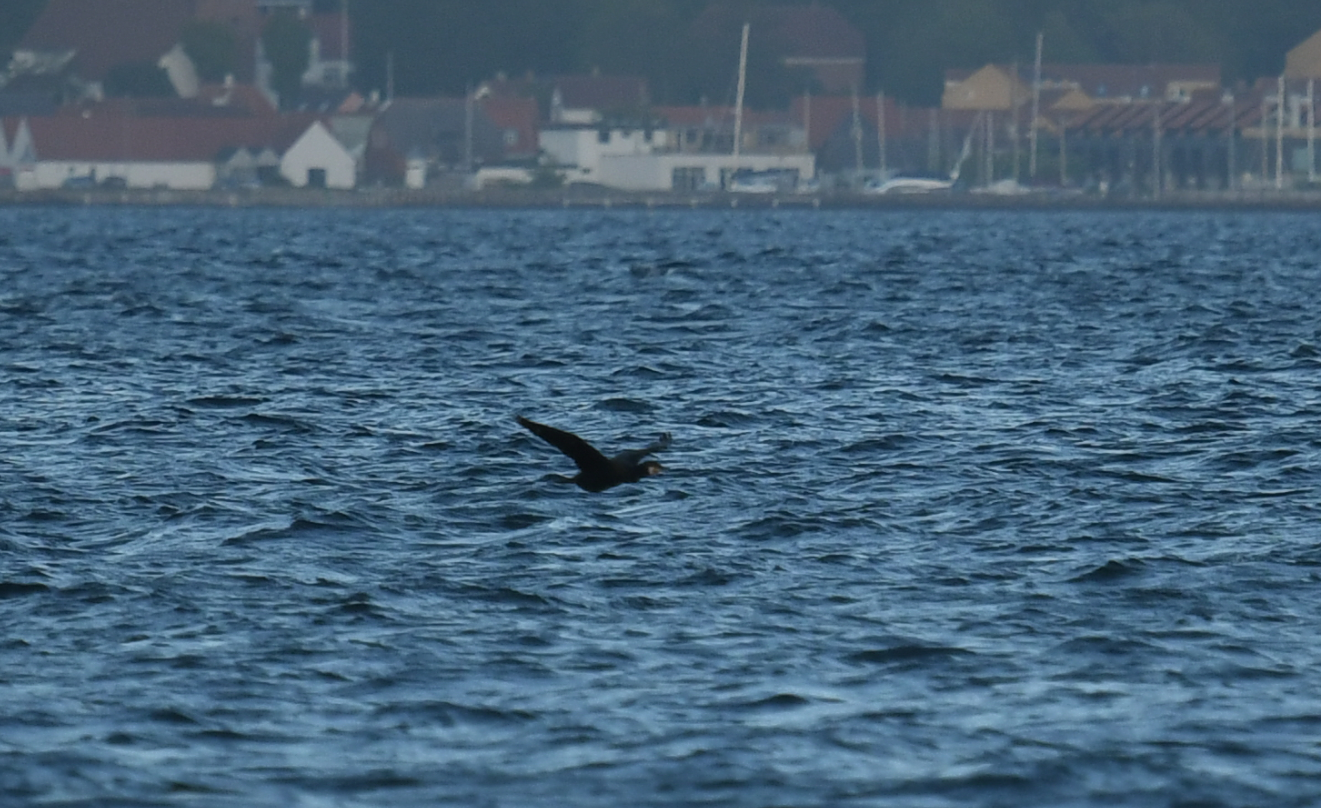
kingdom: Animalia
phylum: Chordata
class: Aves
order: Suliformes
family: Phalacrocoracidae
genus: Phalacrocorax
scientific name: Phalacrocorax carbo
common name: Great cormorant
